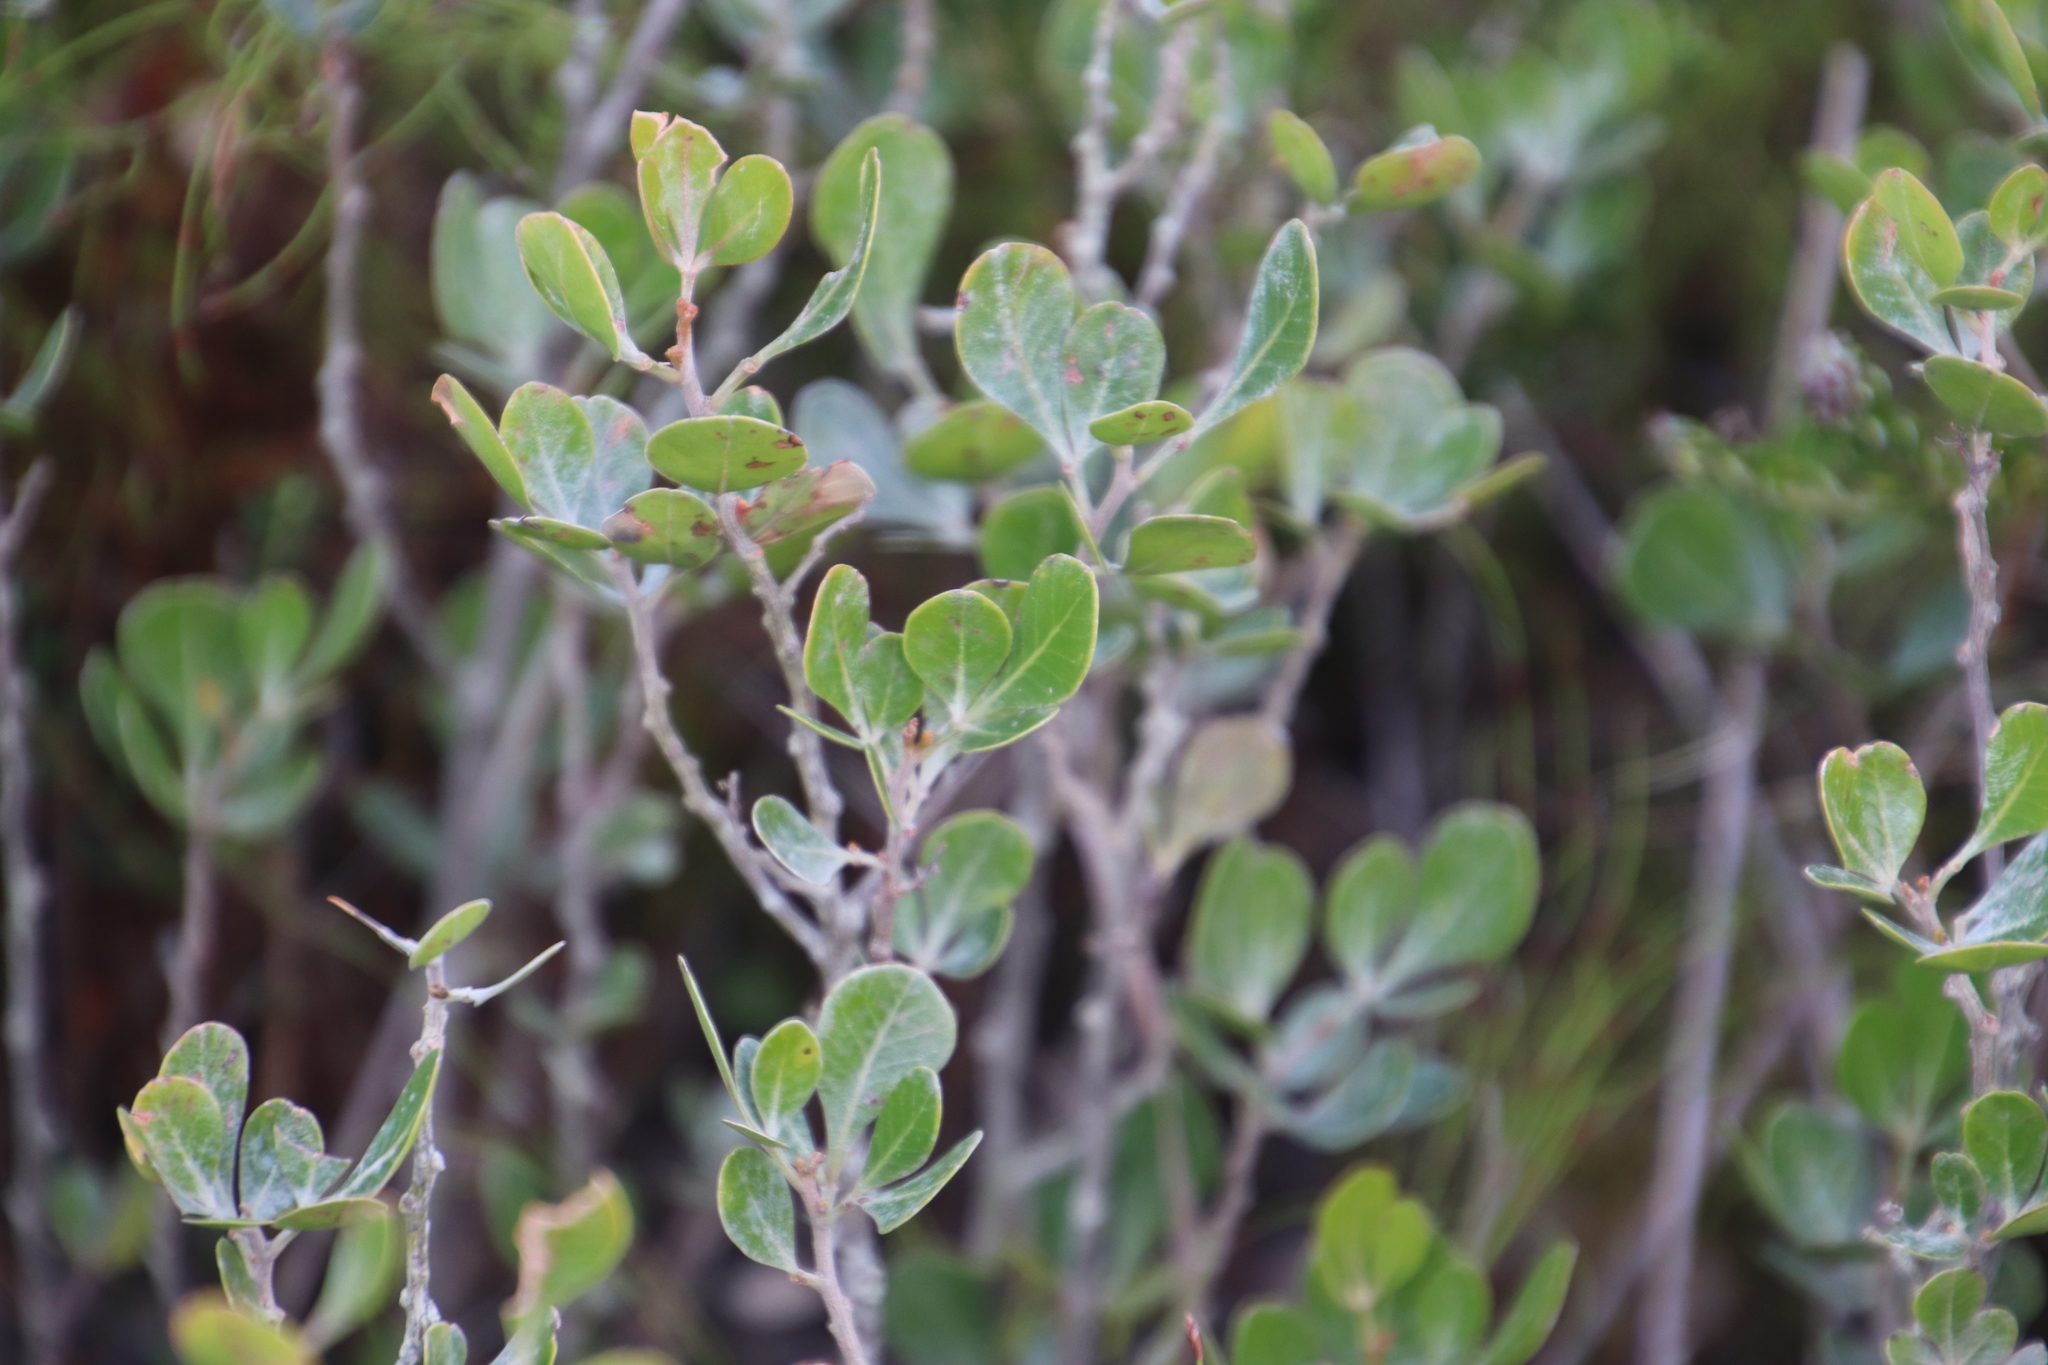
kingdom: Plantae
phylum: Tracheophyta
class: Magnoliopsida
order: Sapindales
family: Anacardiaceae
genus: Searsia
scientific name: Searsia lucida
